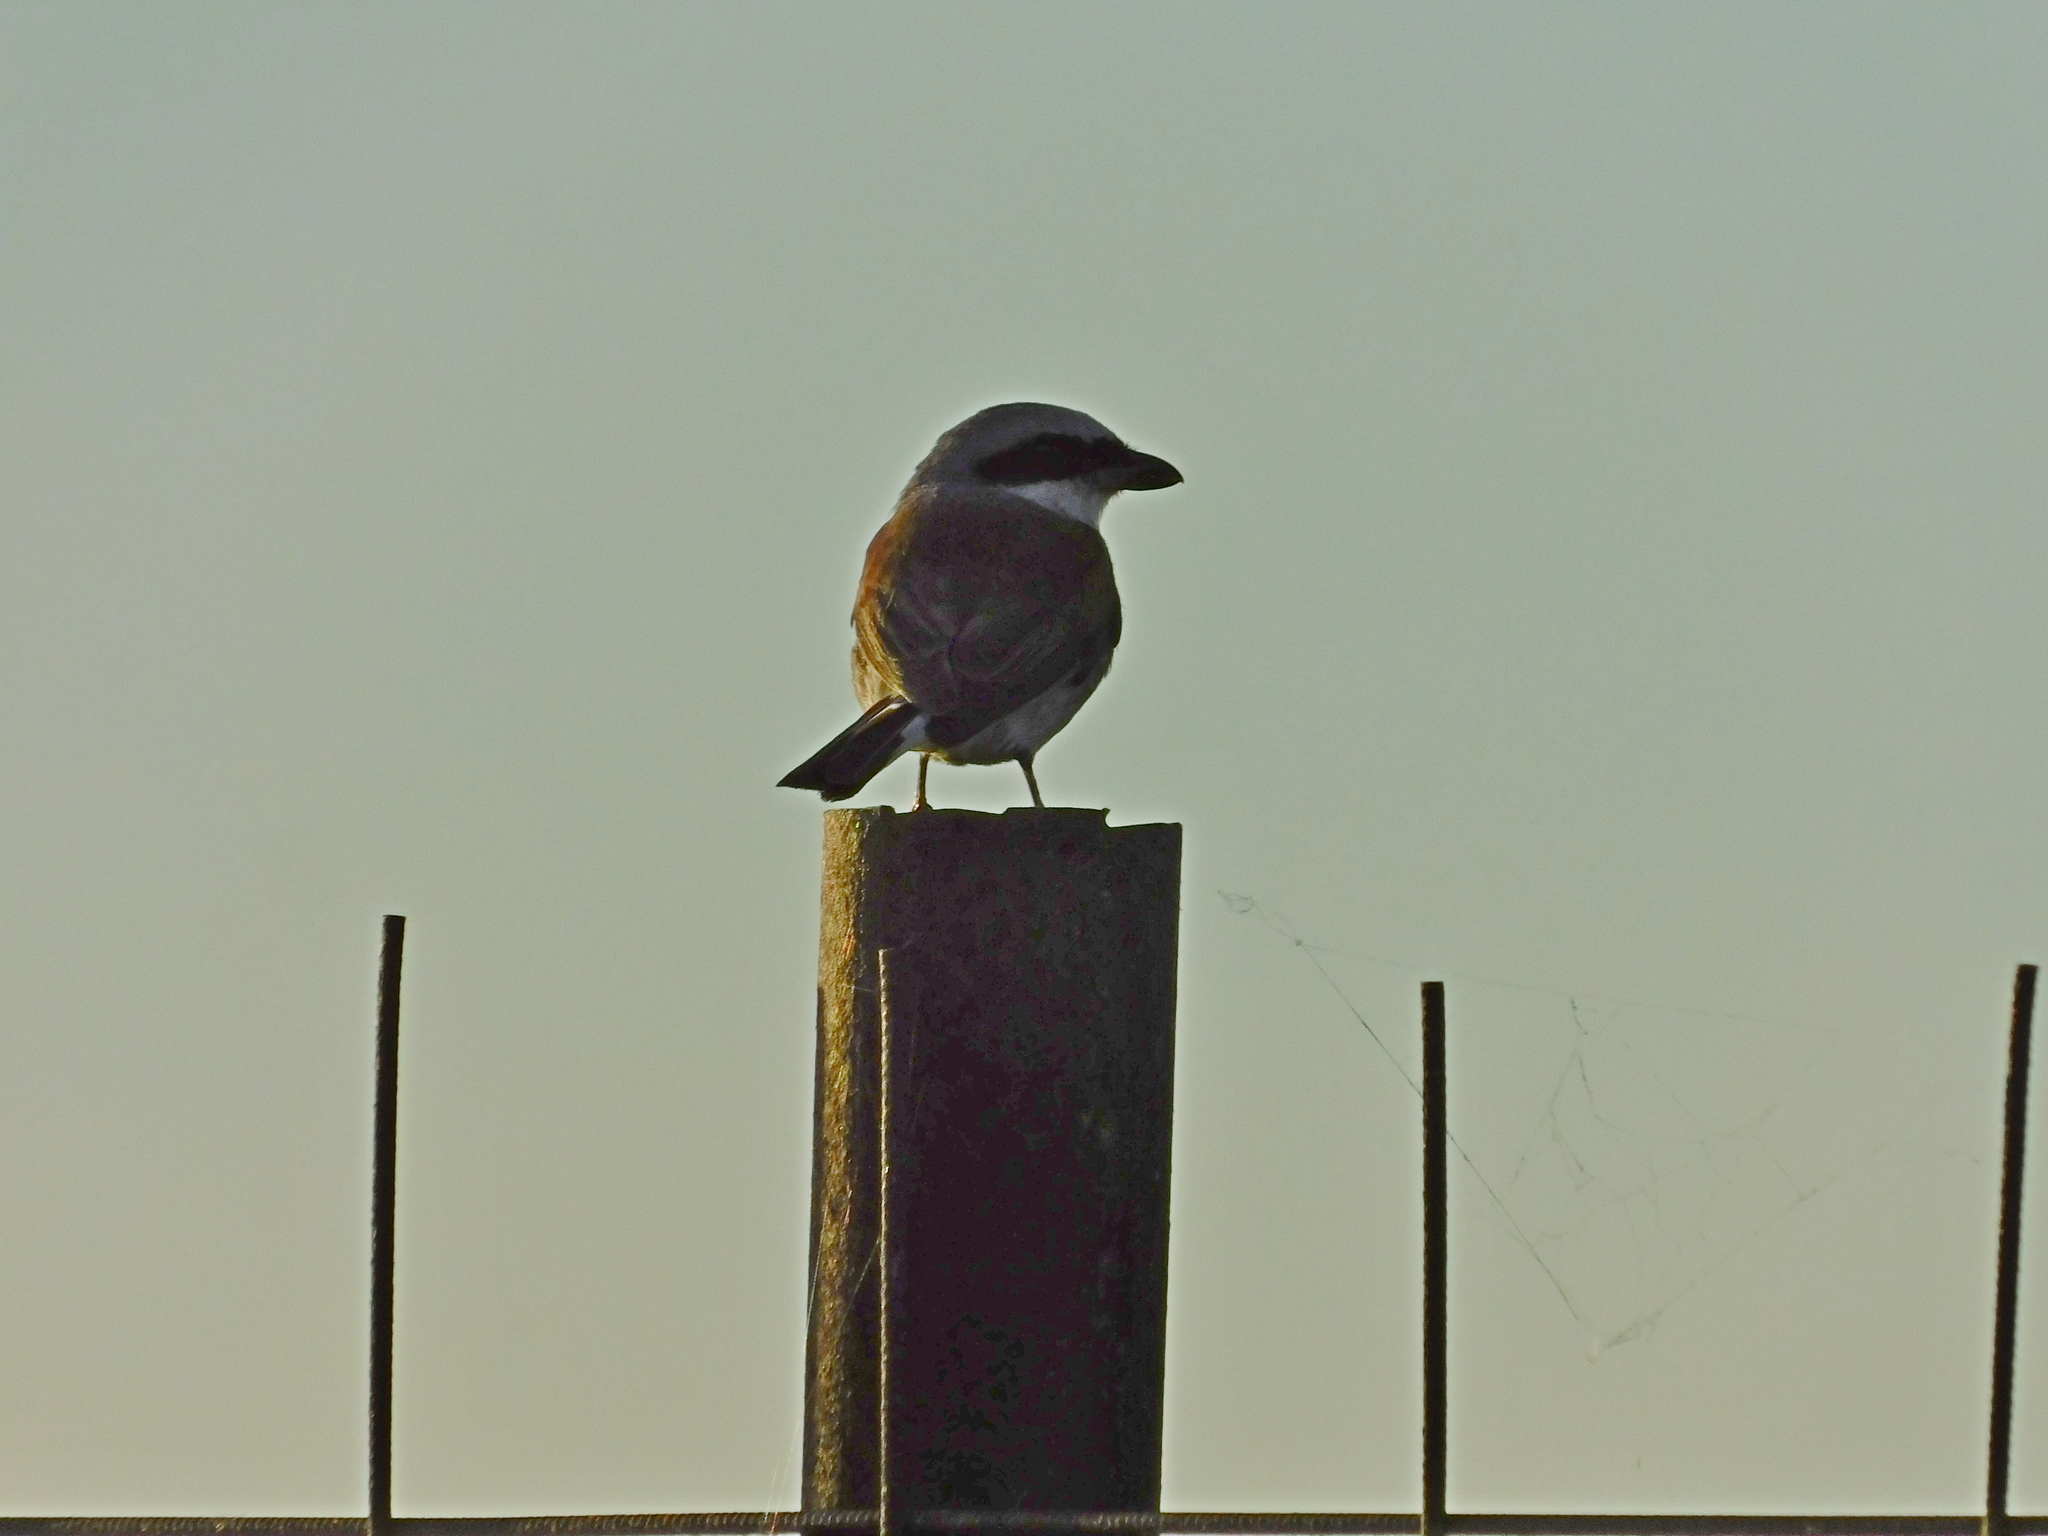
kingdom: Animalia
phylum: Chordata
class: Aves
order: Passeriformes
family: Laniidae
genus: Lanius
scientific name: Lanius collurio
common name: Red-backed shrike
